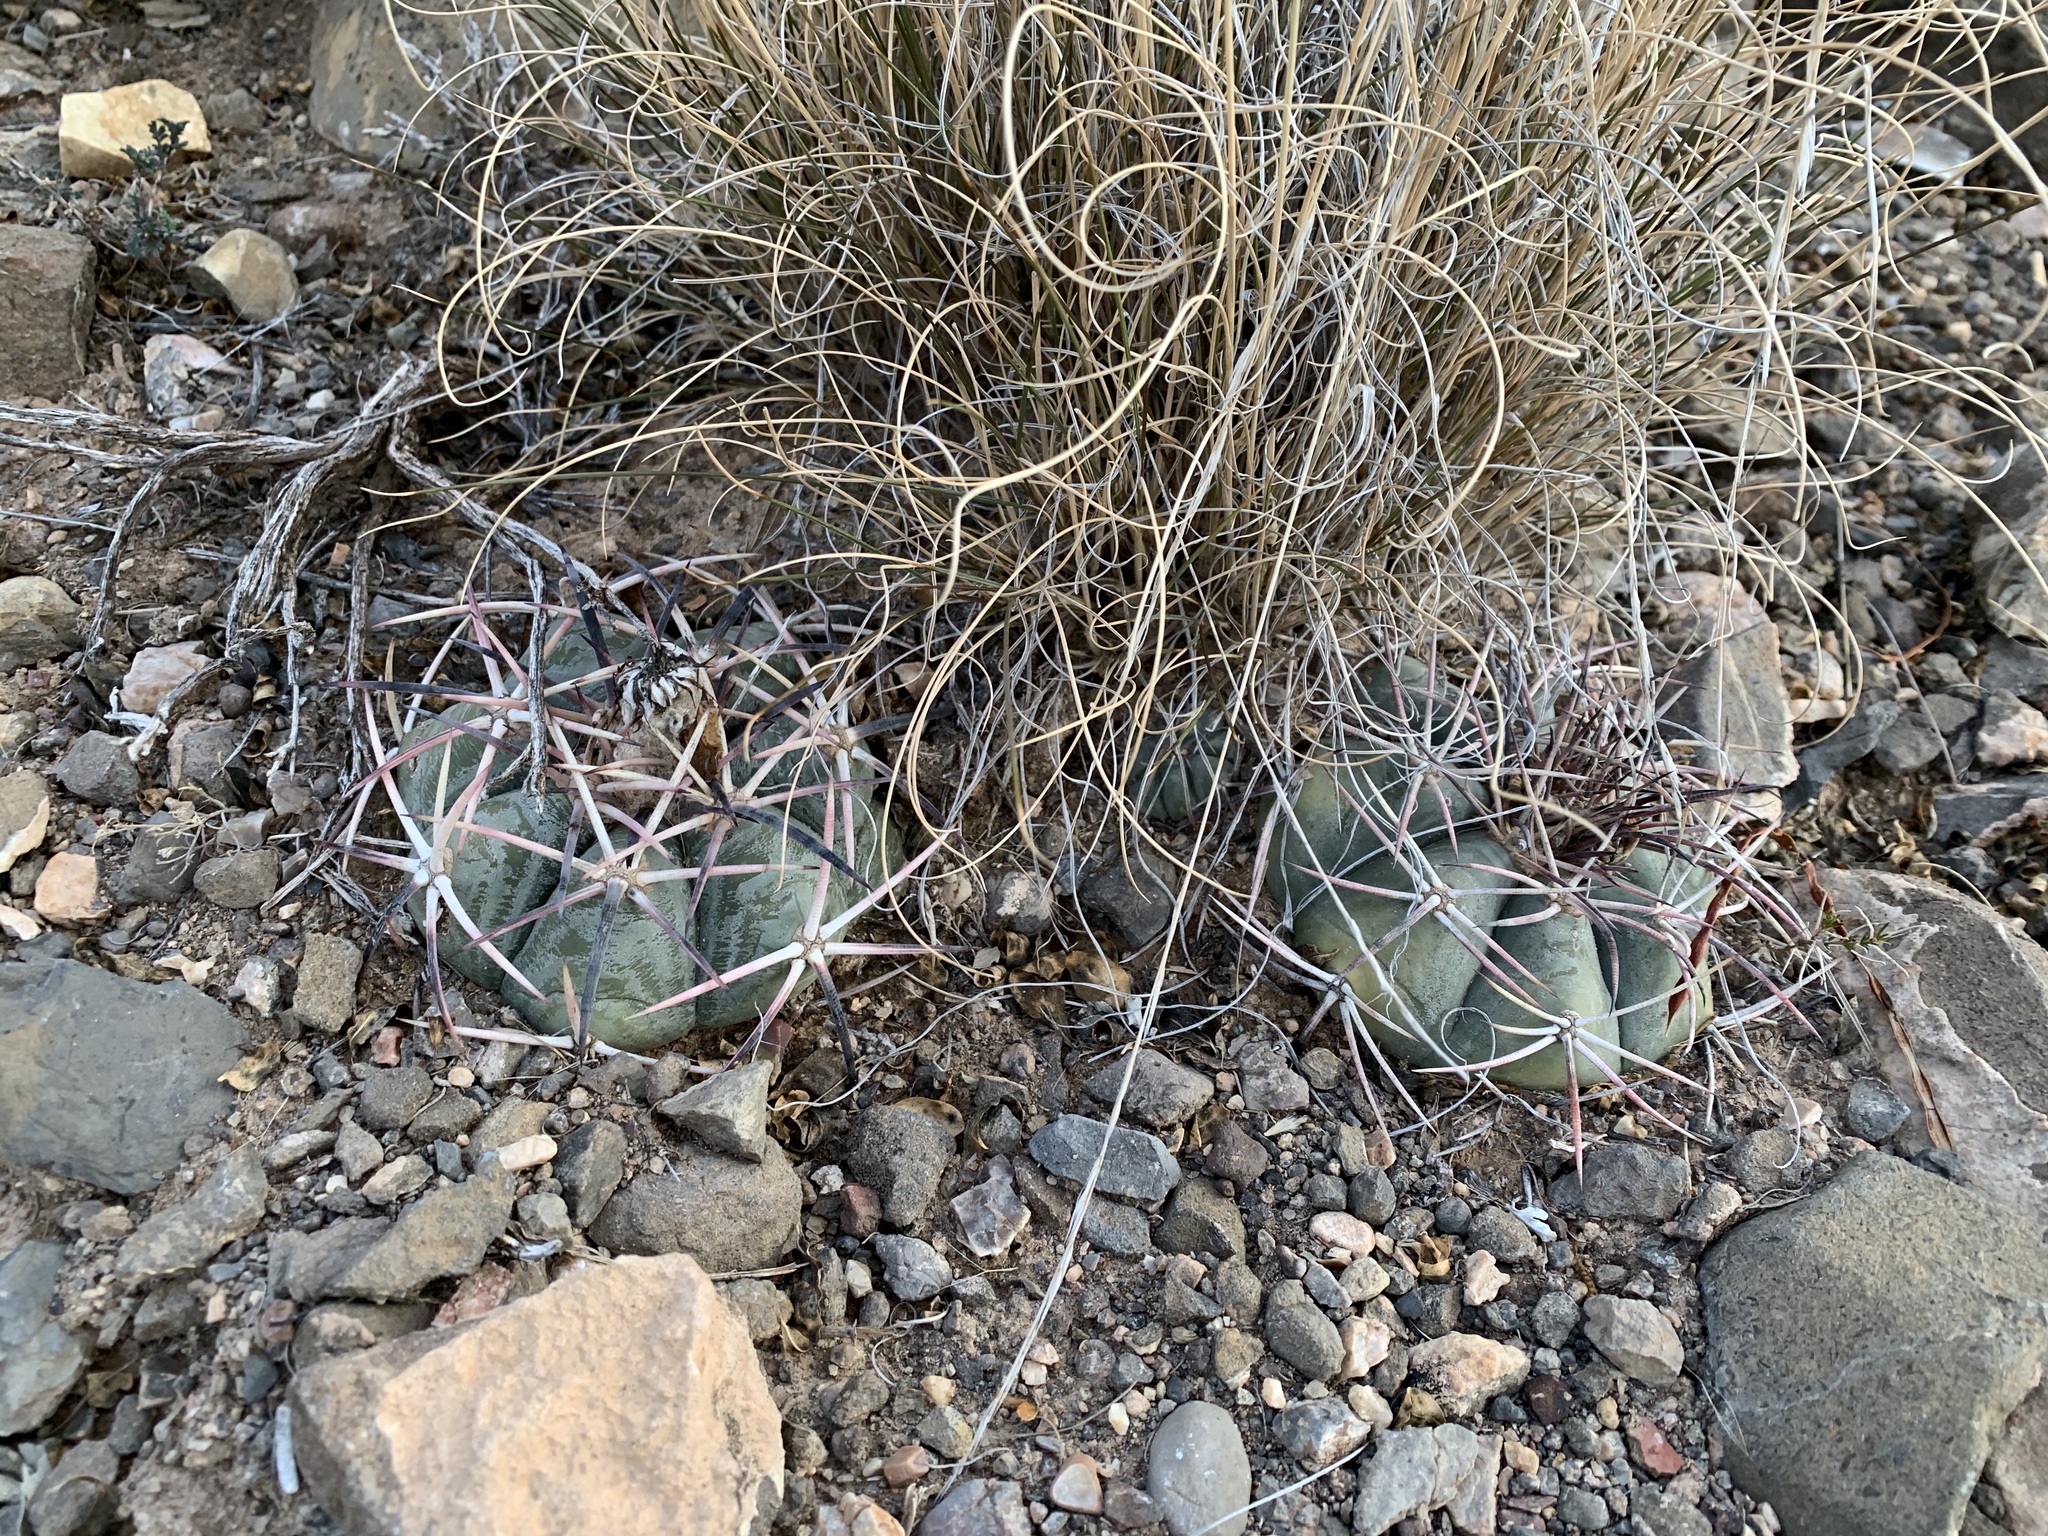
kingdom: Plantae
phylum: Tracheophyta
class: Magnoliopsida
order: Caryophyllales
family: Cactaceae
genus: Echinocactus
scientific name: Echinocactus horizonthalonius
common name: Devilshead
